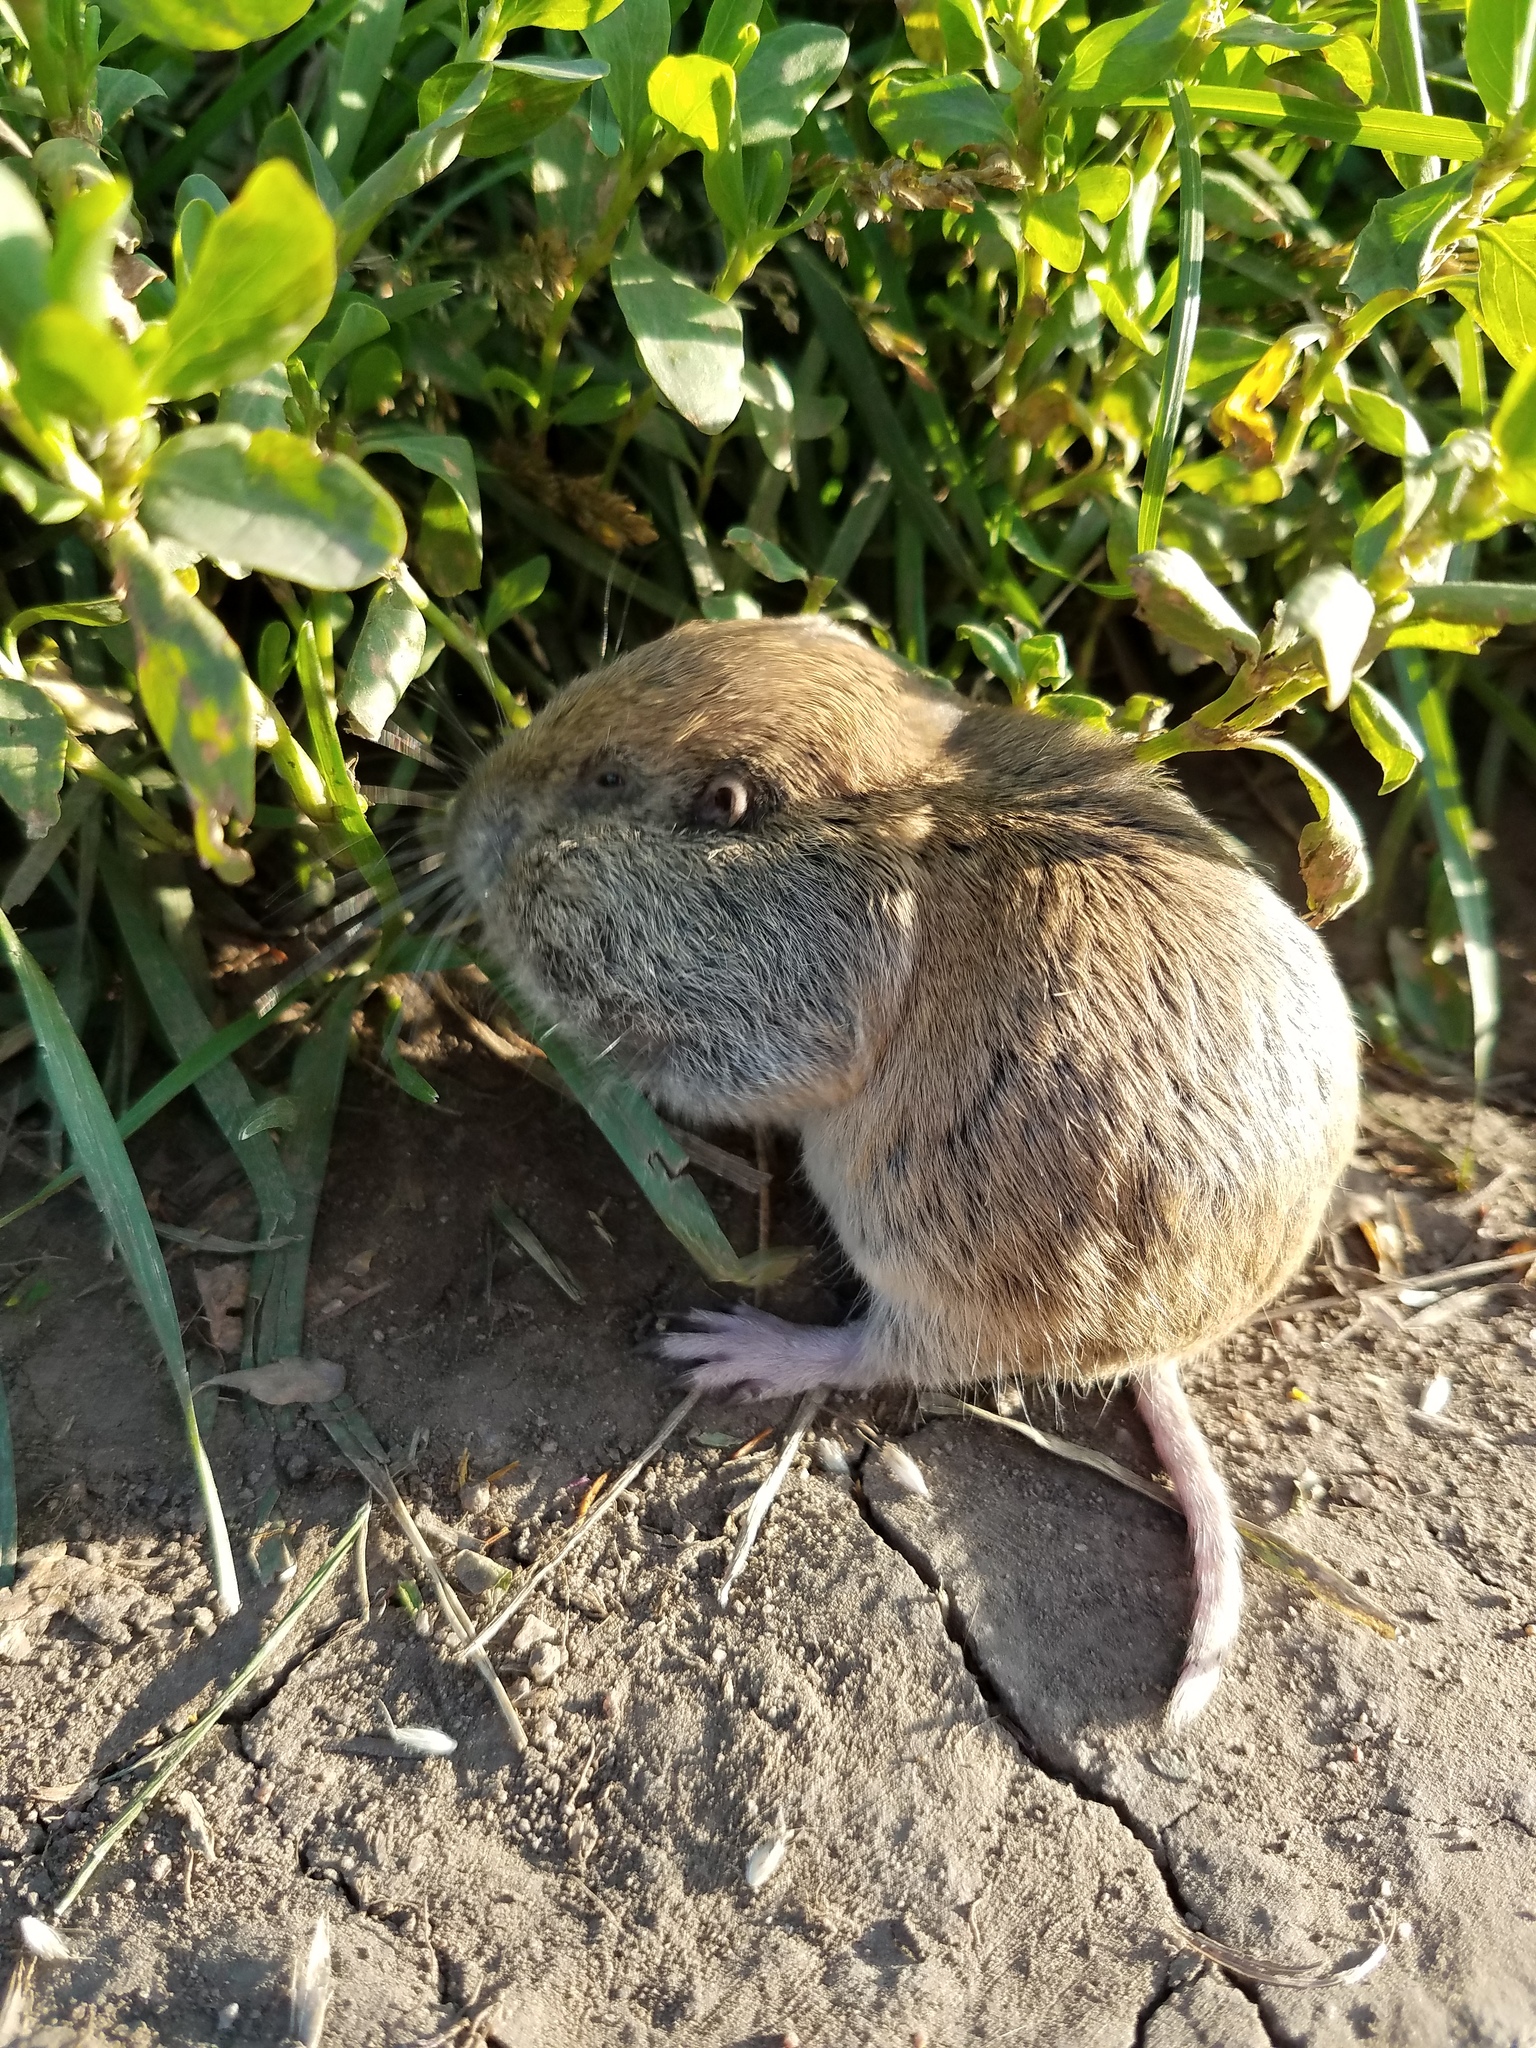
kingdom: Animalia
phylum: Chordata
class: Mammalia
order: Rodentia
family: Geomyidae
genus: Thomomys
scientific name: Thomomys talpoides
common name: Northern pocket gopher
